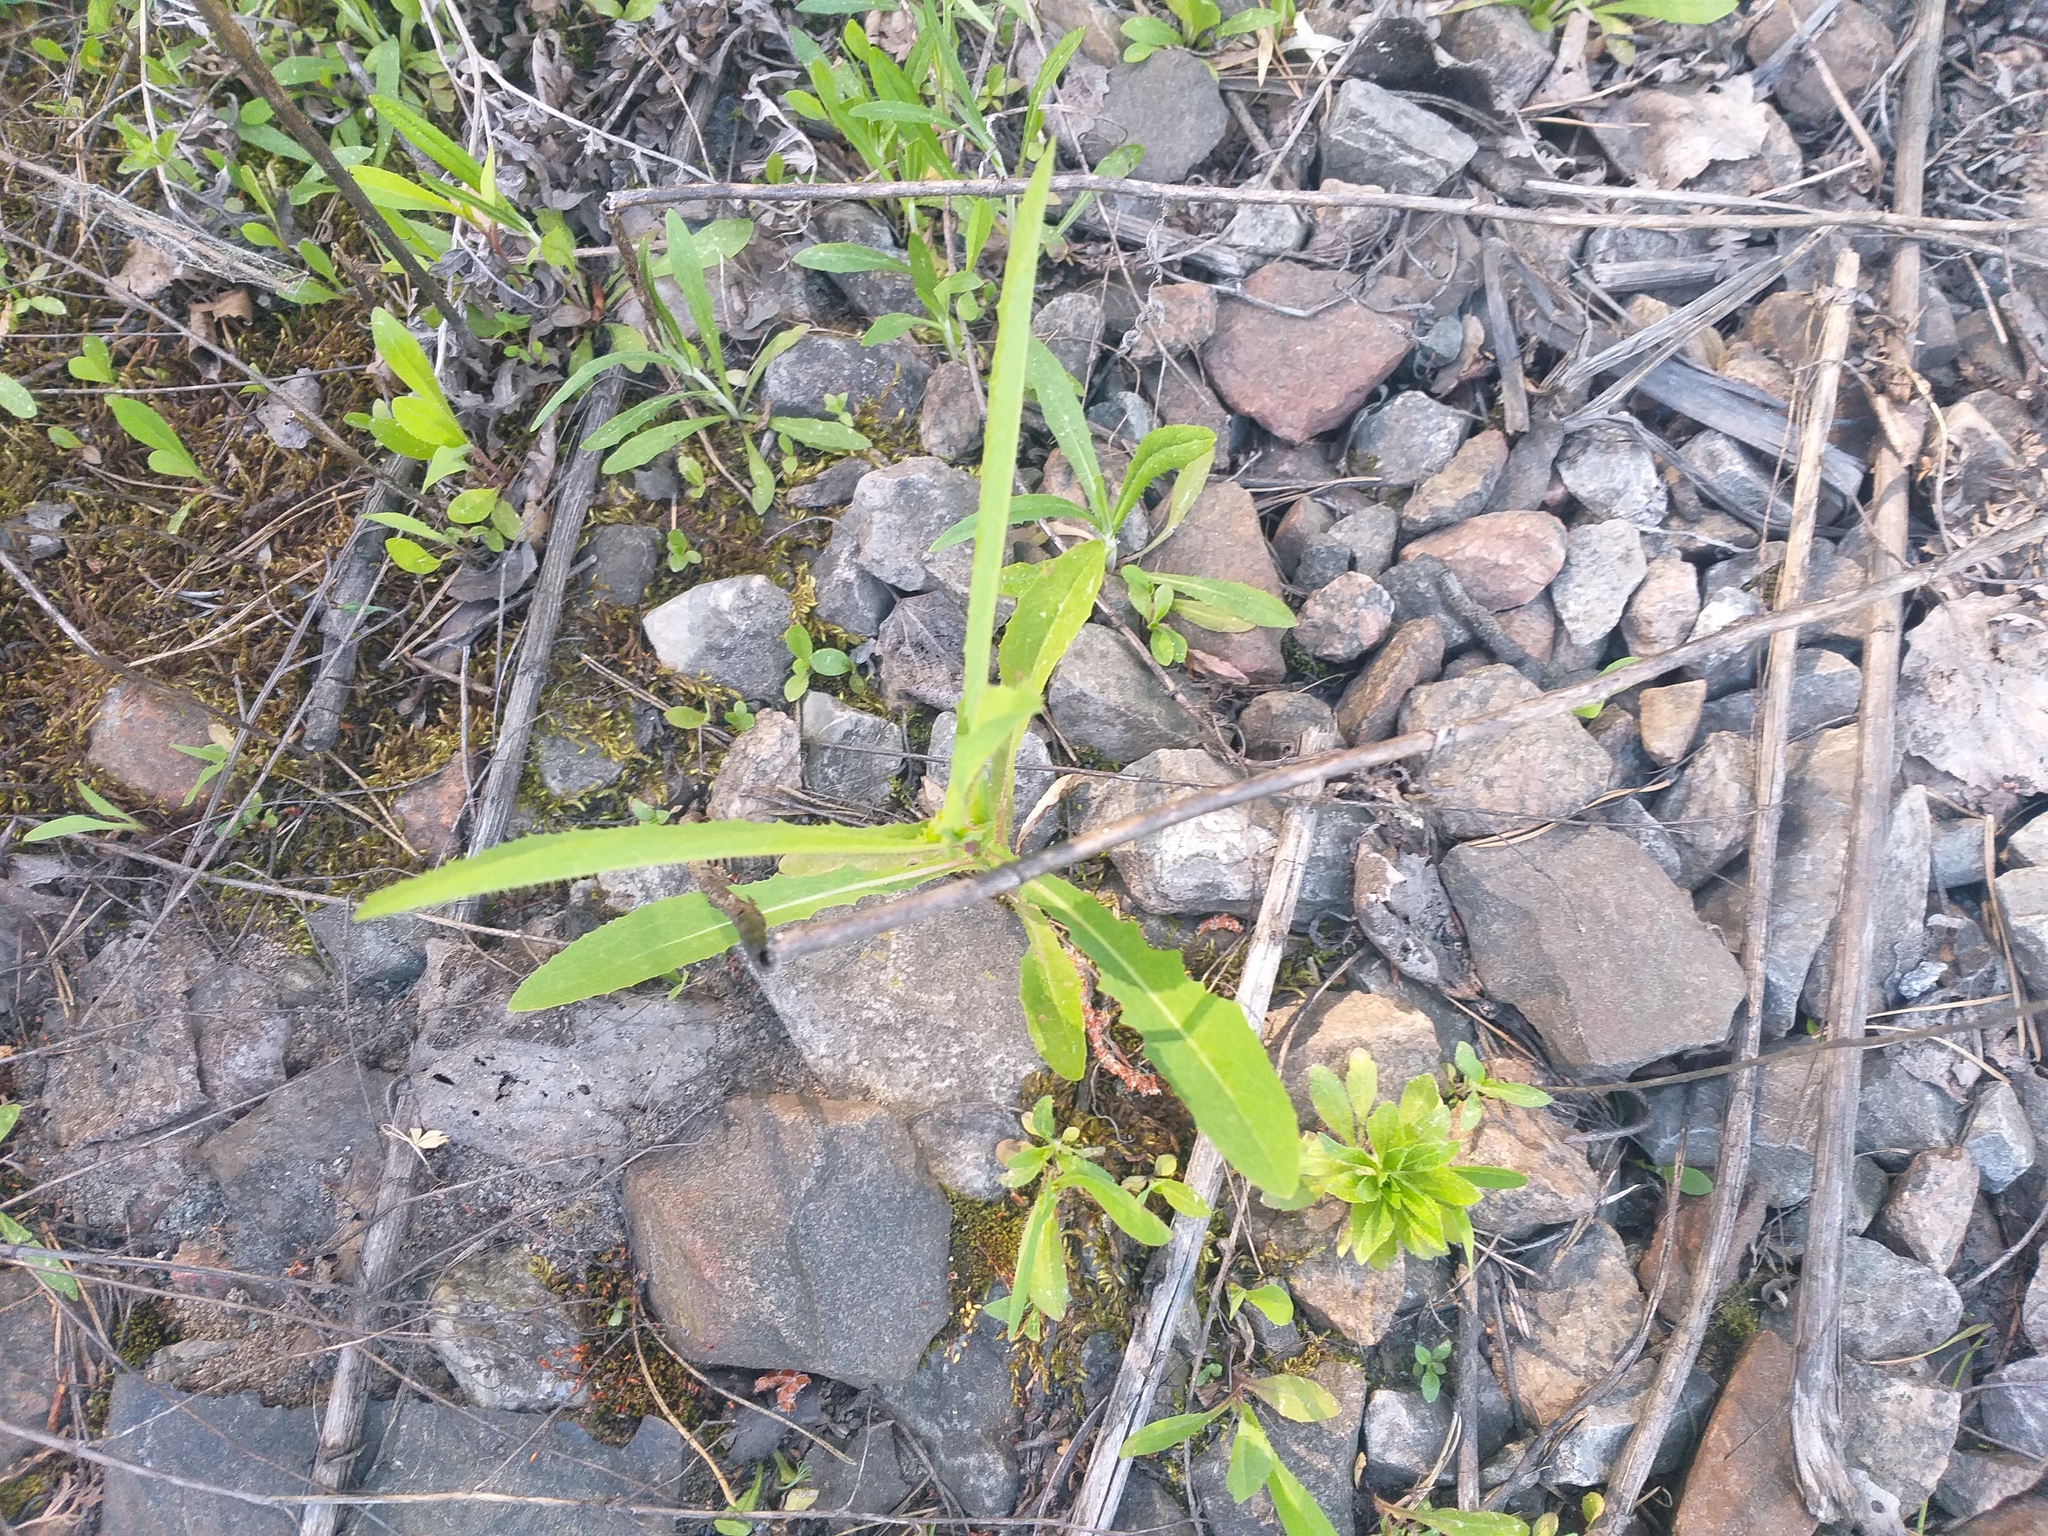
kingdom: Plantae
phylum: Tracheophyta
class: Magnoliopsida
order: Asterales
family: Asteraceae
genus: Lactuca
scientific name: Lactuca serriola
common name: Prickly lettuce
